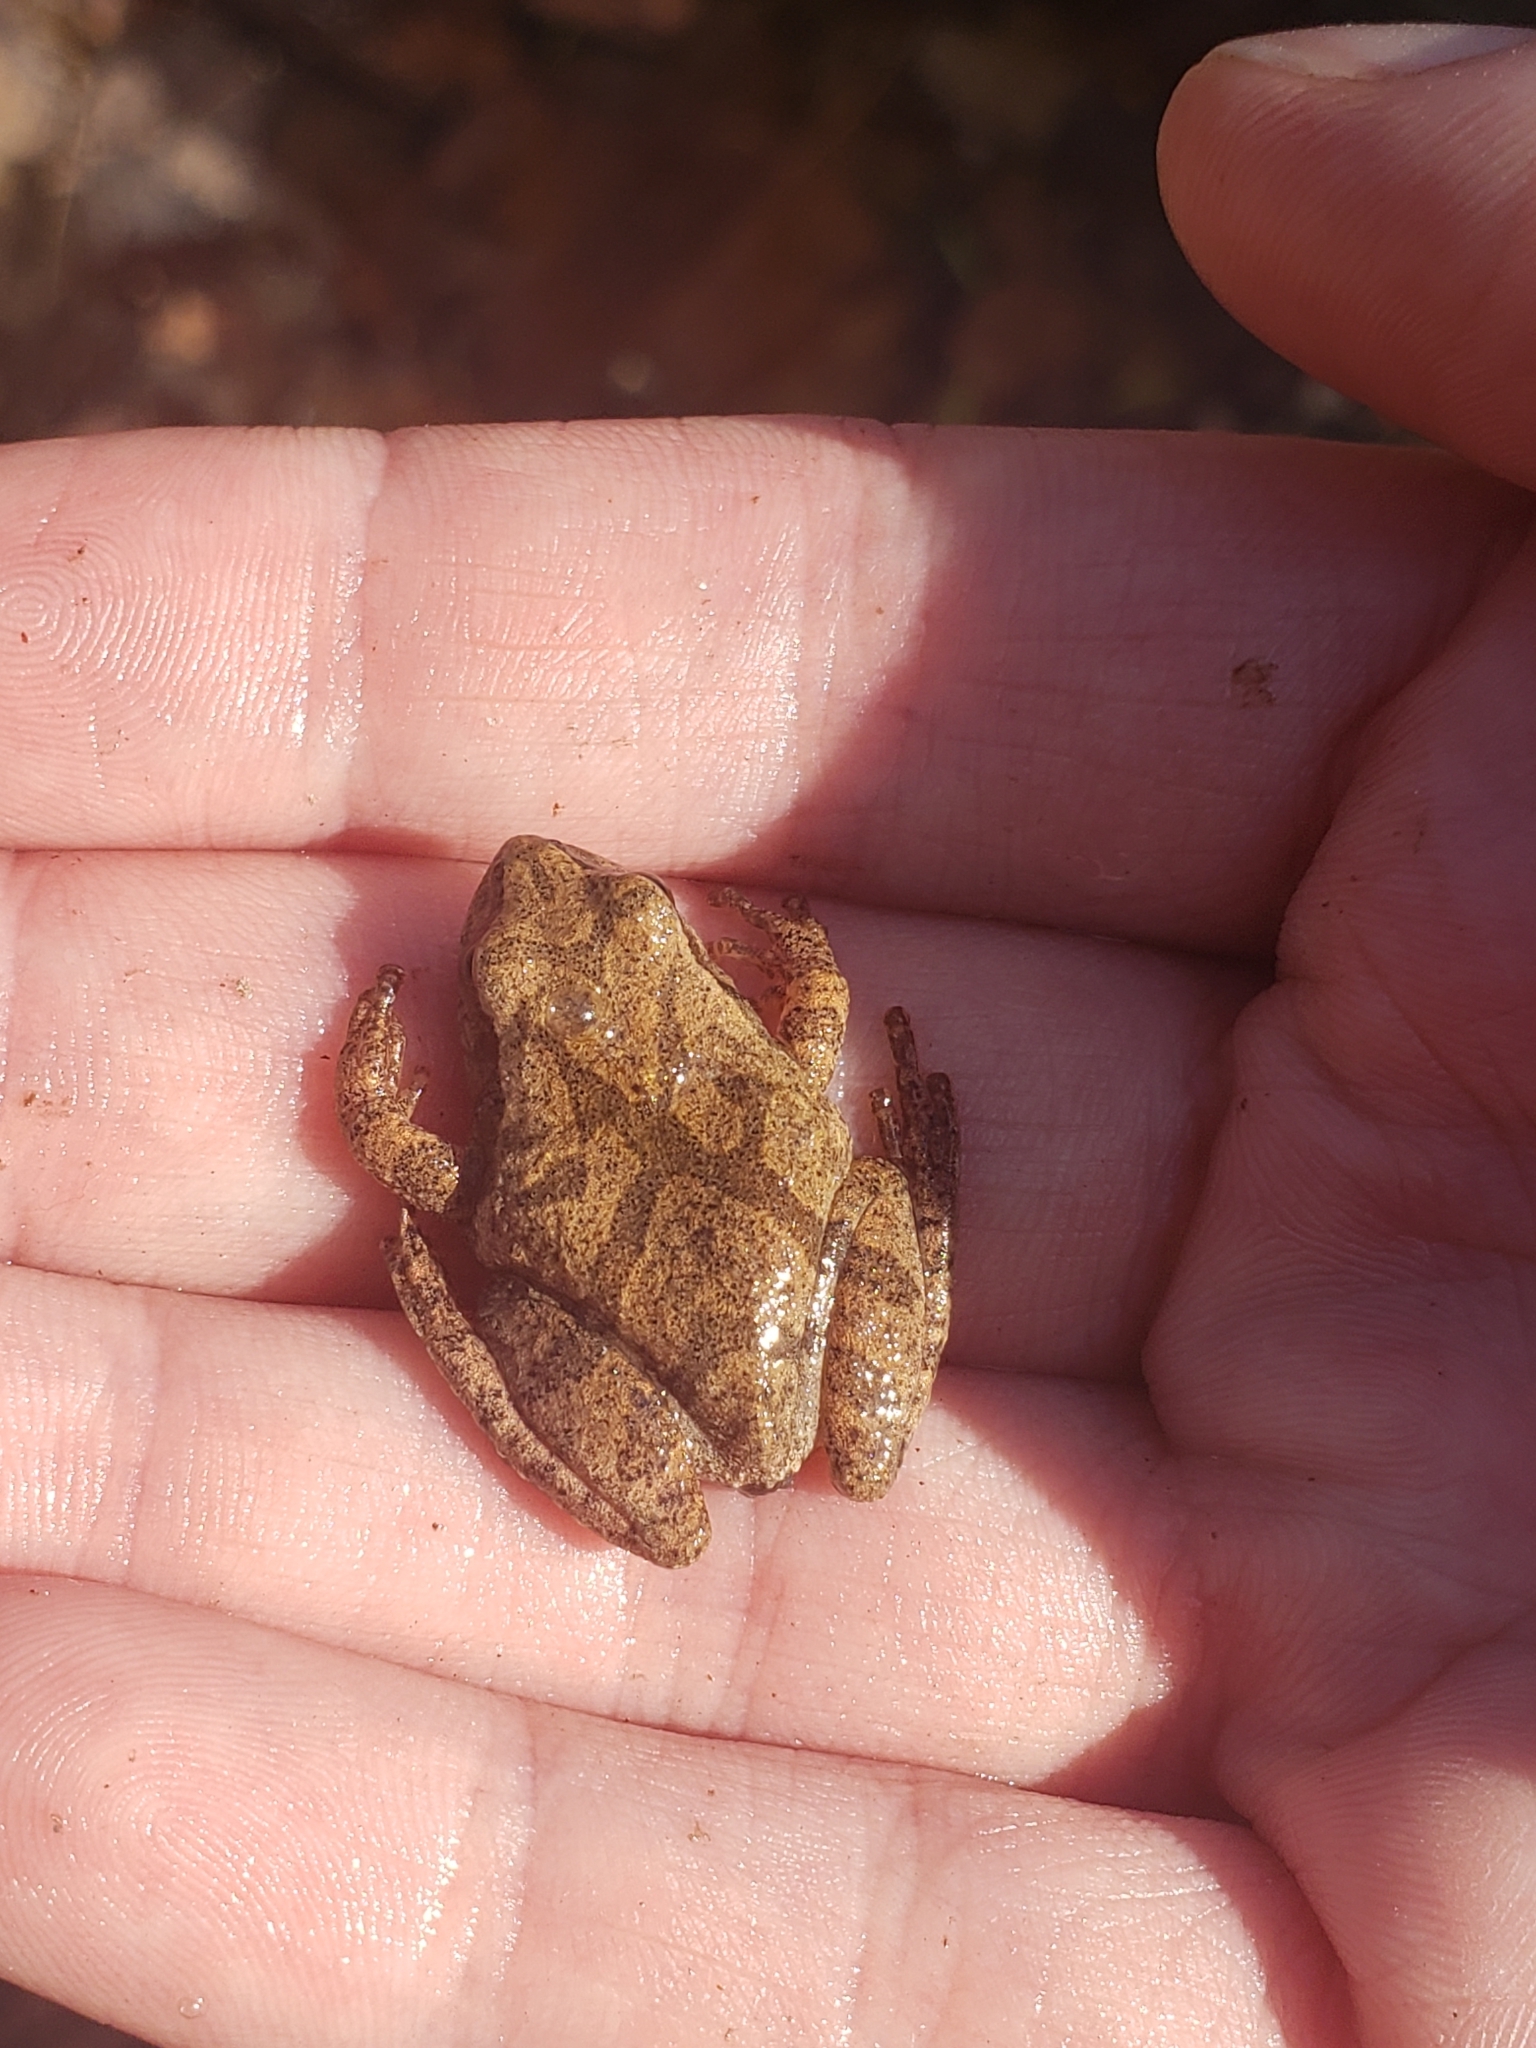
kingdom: Animalia
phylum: Chordata
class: Amphibia
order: Anura
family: Hylidae
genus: Pseudacris
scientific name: Pseudacris crucifer
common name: Spring peeper
